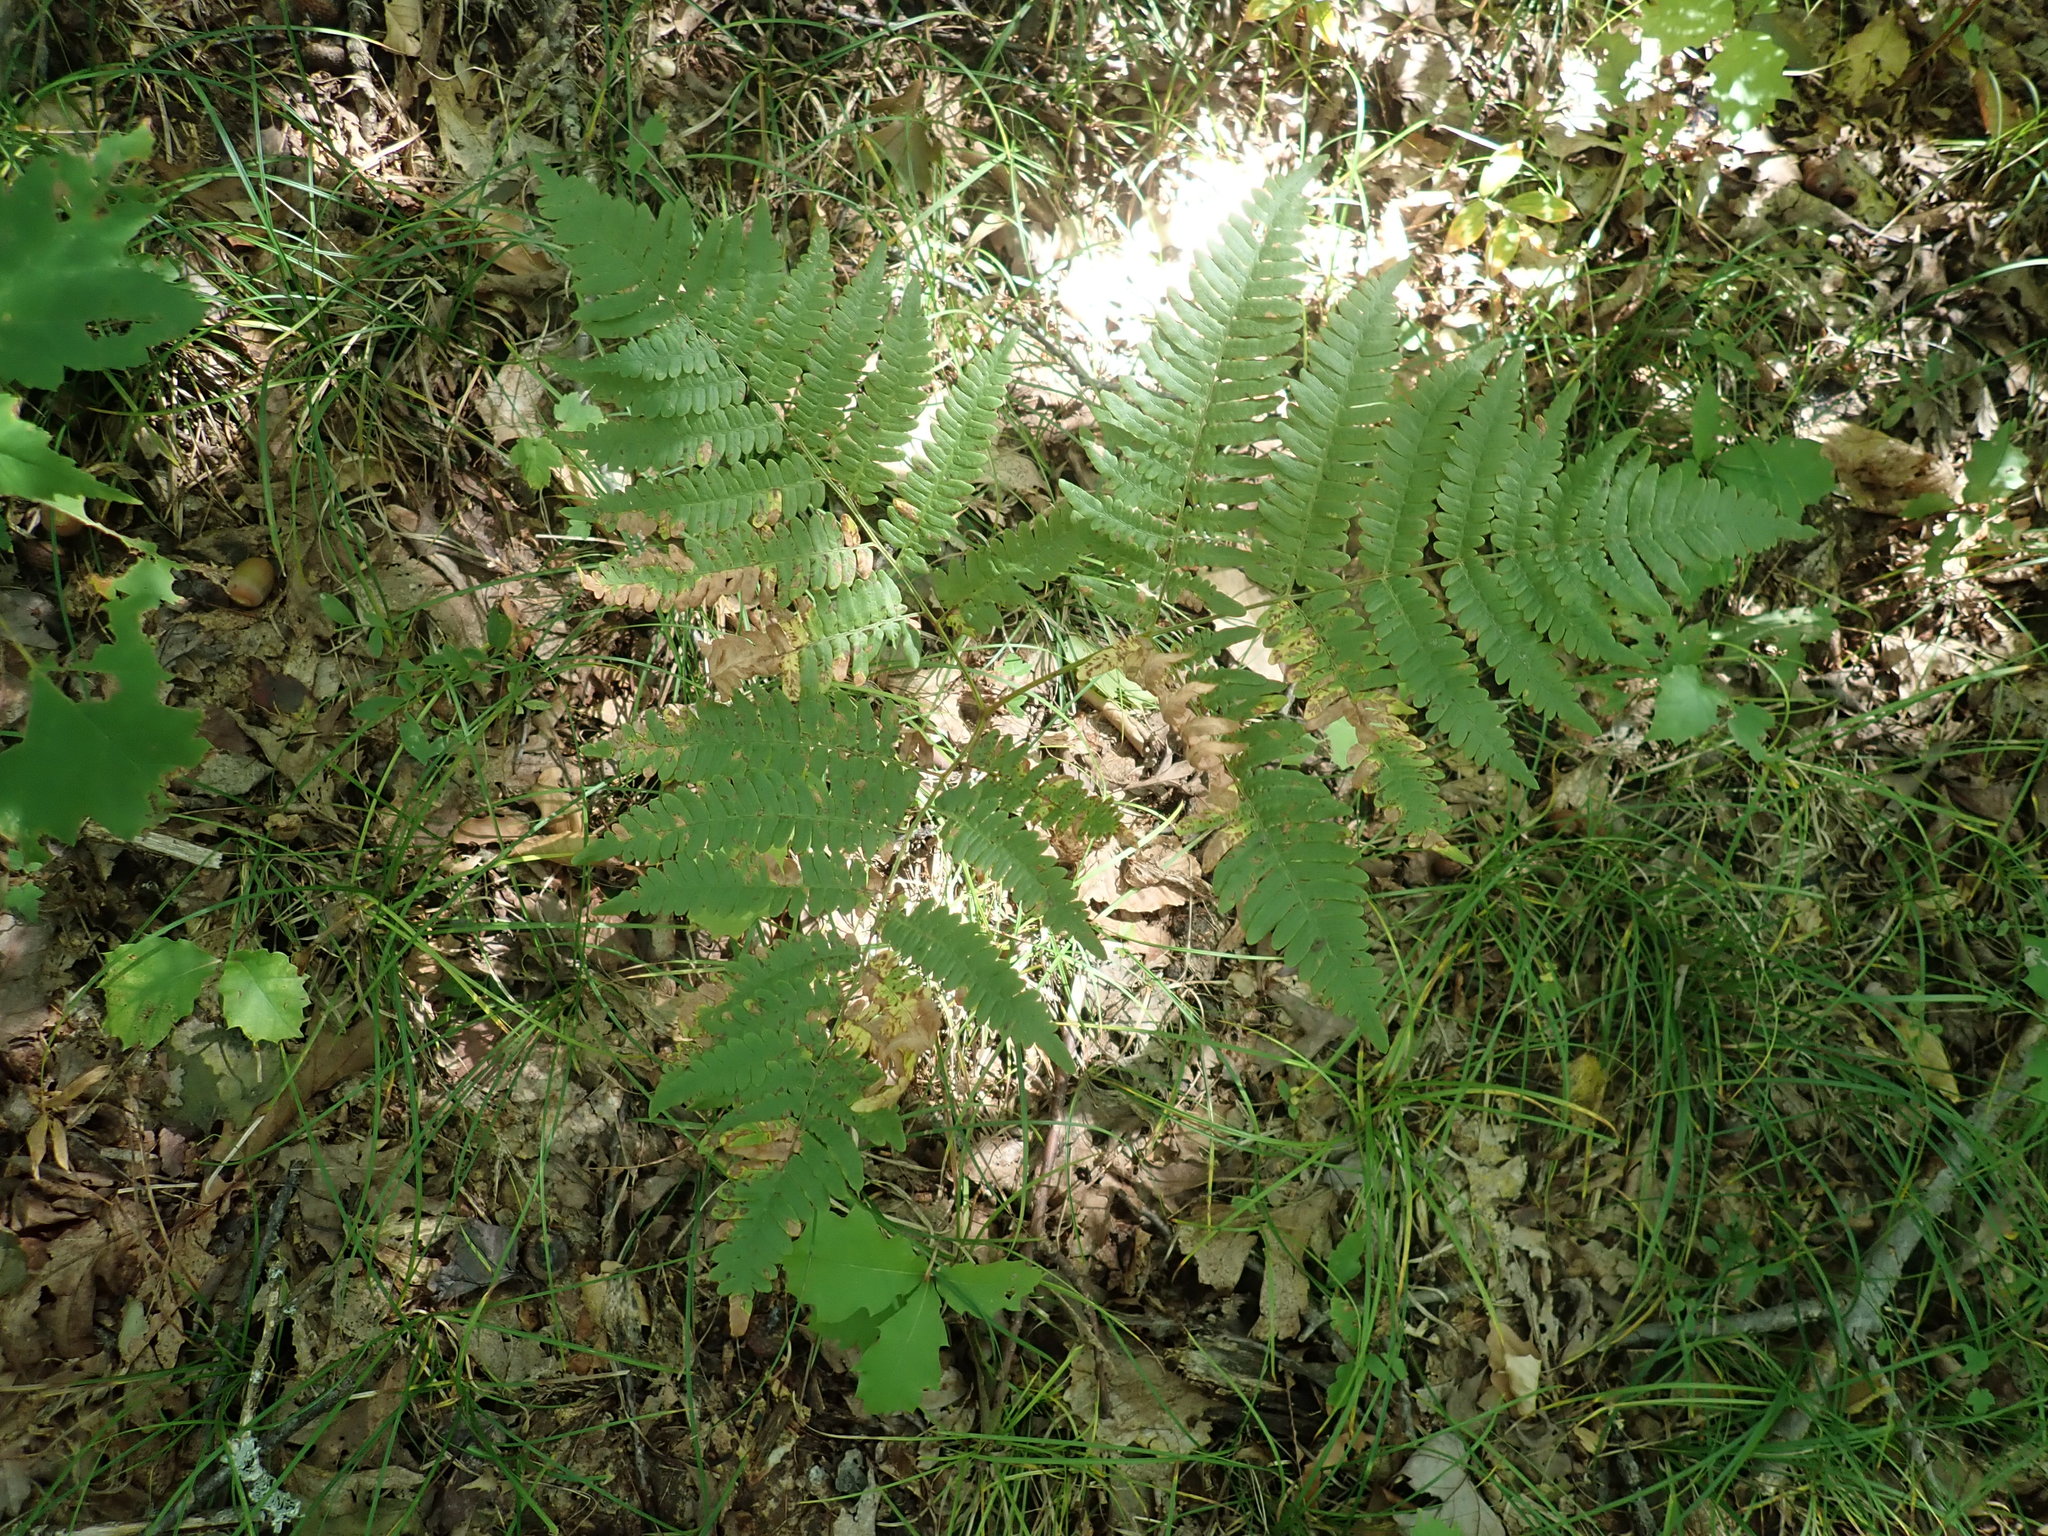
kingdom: Plantae
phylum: Tracheophyta
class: Polypodiopsida
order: Polypodiales
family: Dennstaedtiaceae
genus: Pteridium
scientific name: Pteridium aquilinum
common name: Bracken
